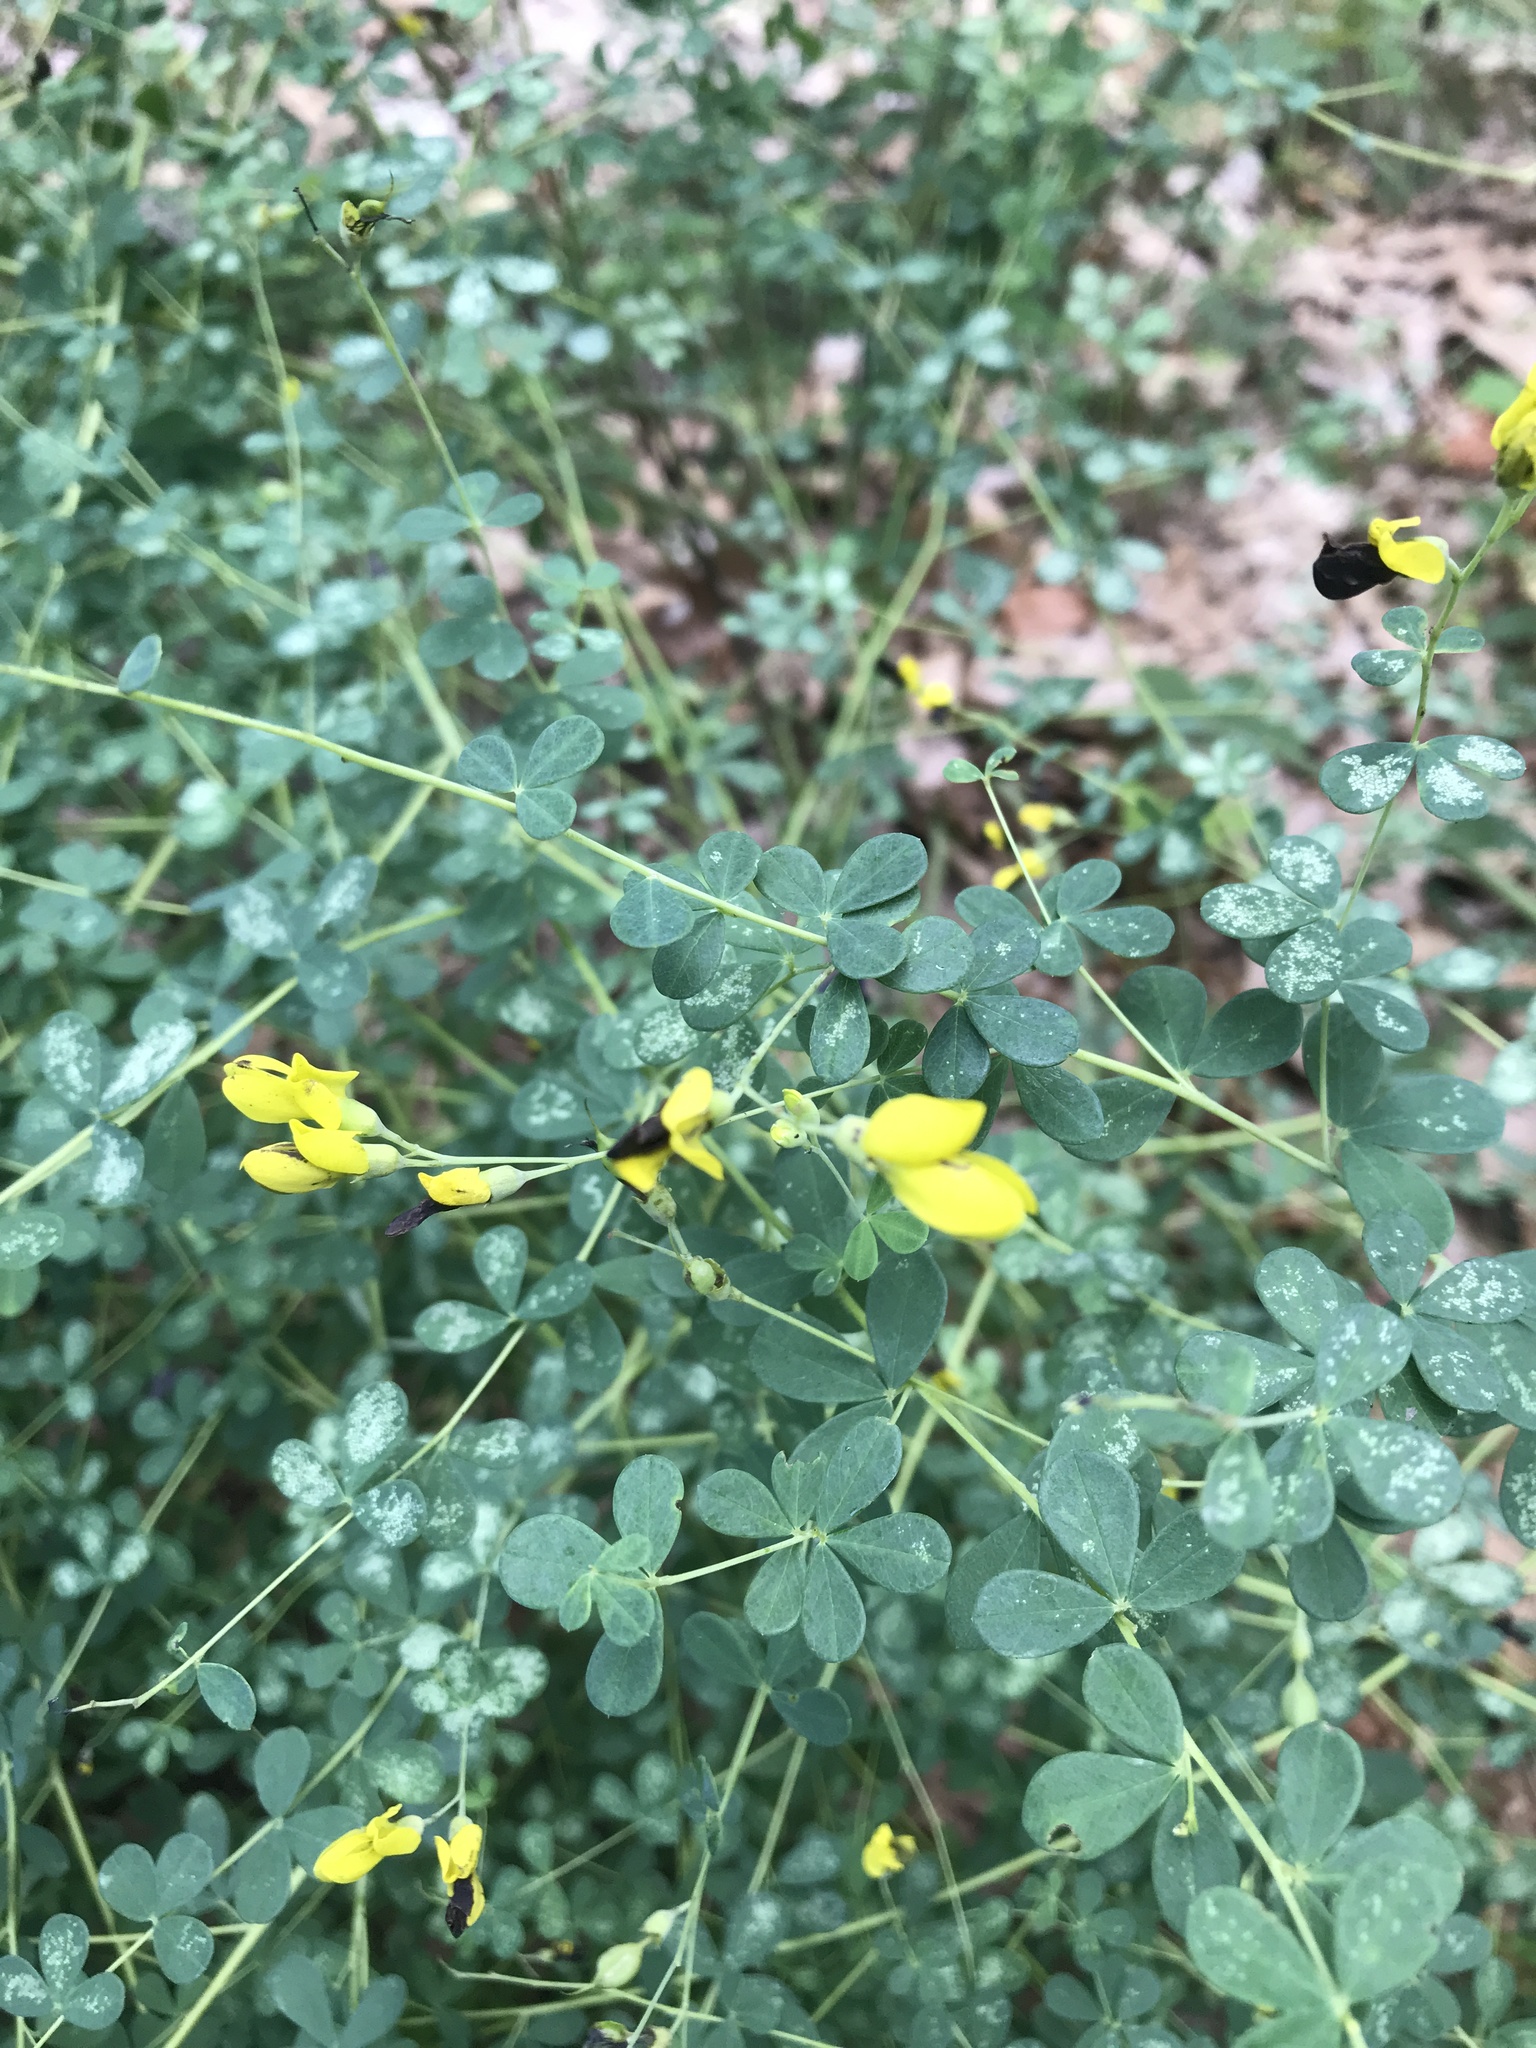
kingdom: Plantae
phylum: Tracheophyta
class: Magnoliopsida
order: Fabales
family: Fabaceae
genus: Baptisia
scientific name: Baptisia tinctoria
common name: Wild indigo
